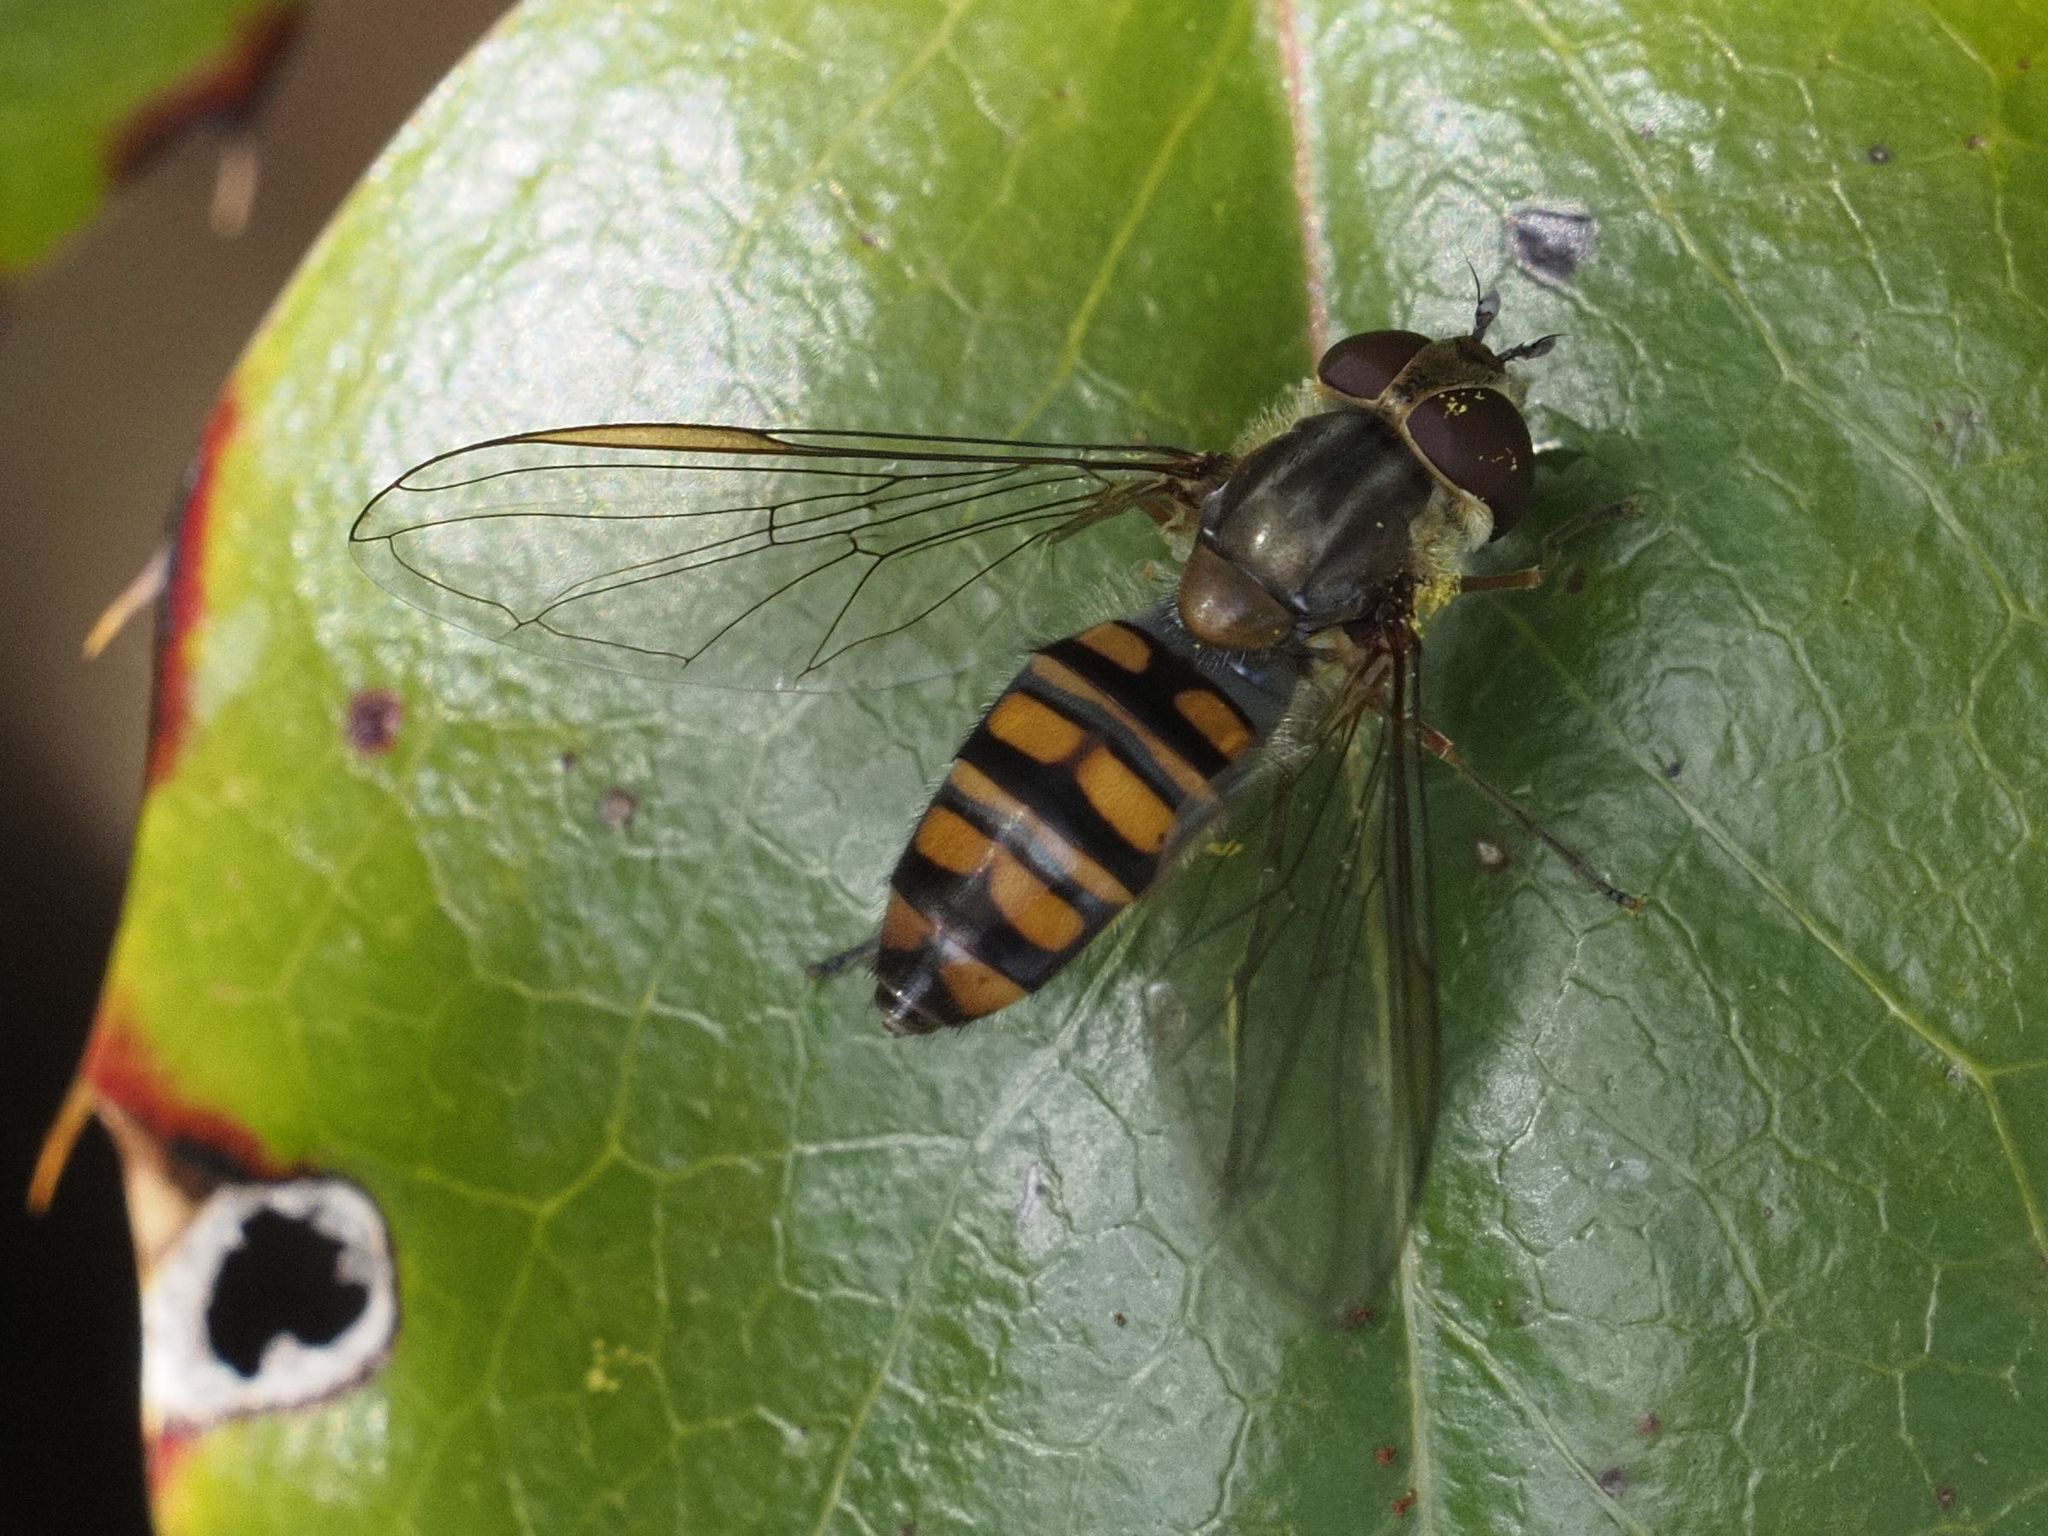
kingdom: Animalia
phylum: Arthropoda
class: Insecta
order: Diptera
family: Syrphidae
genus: Episyrphus
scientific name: Episyrphus balteatus
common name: Marmalade hoverfly
